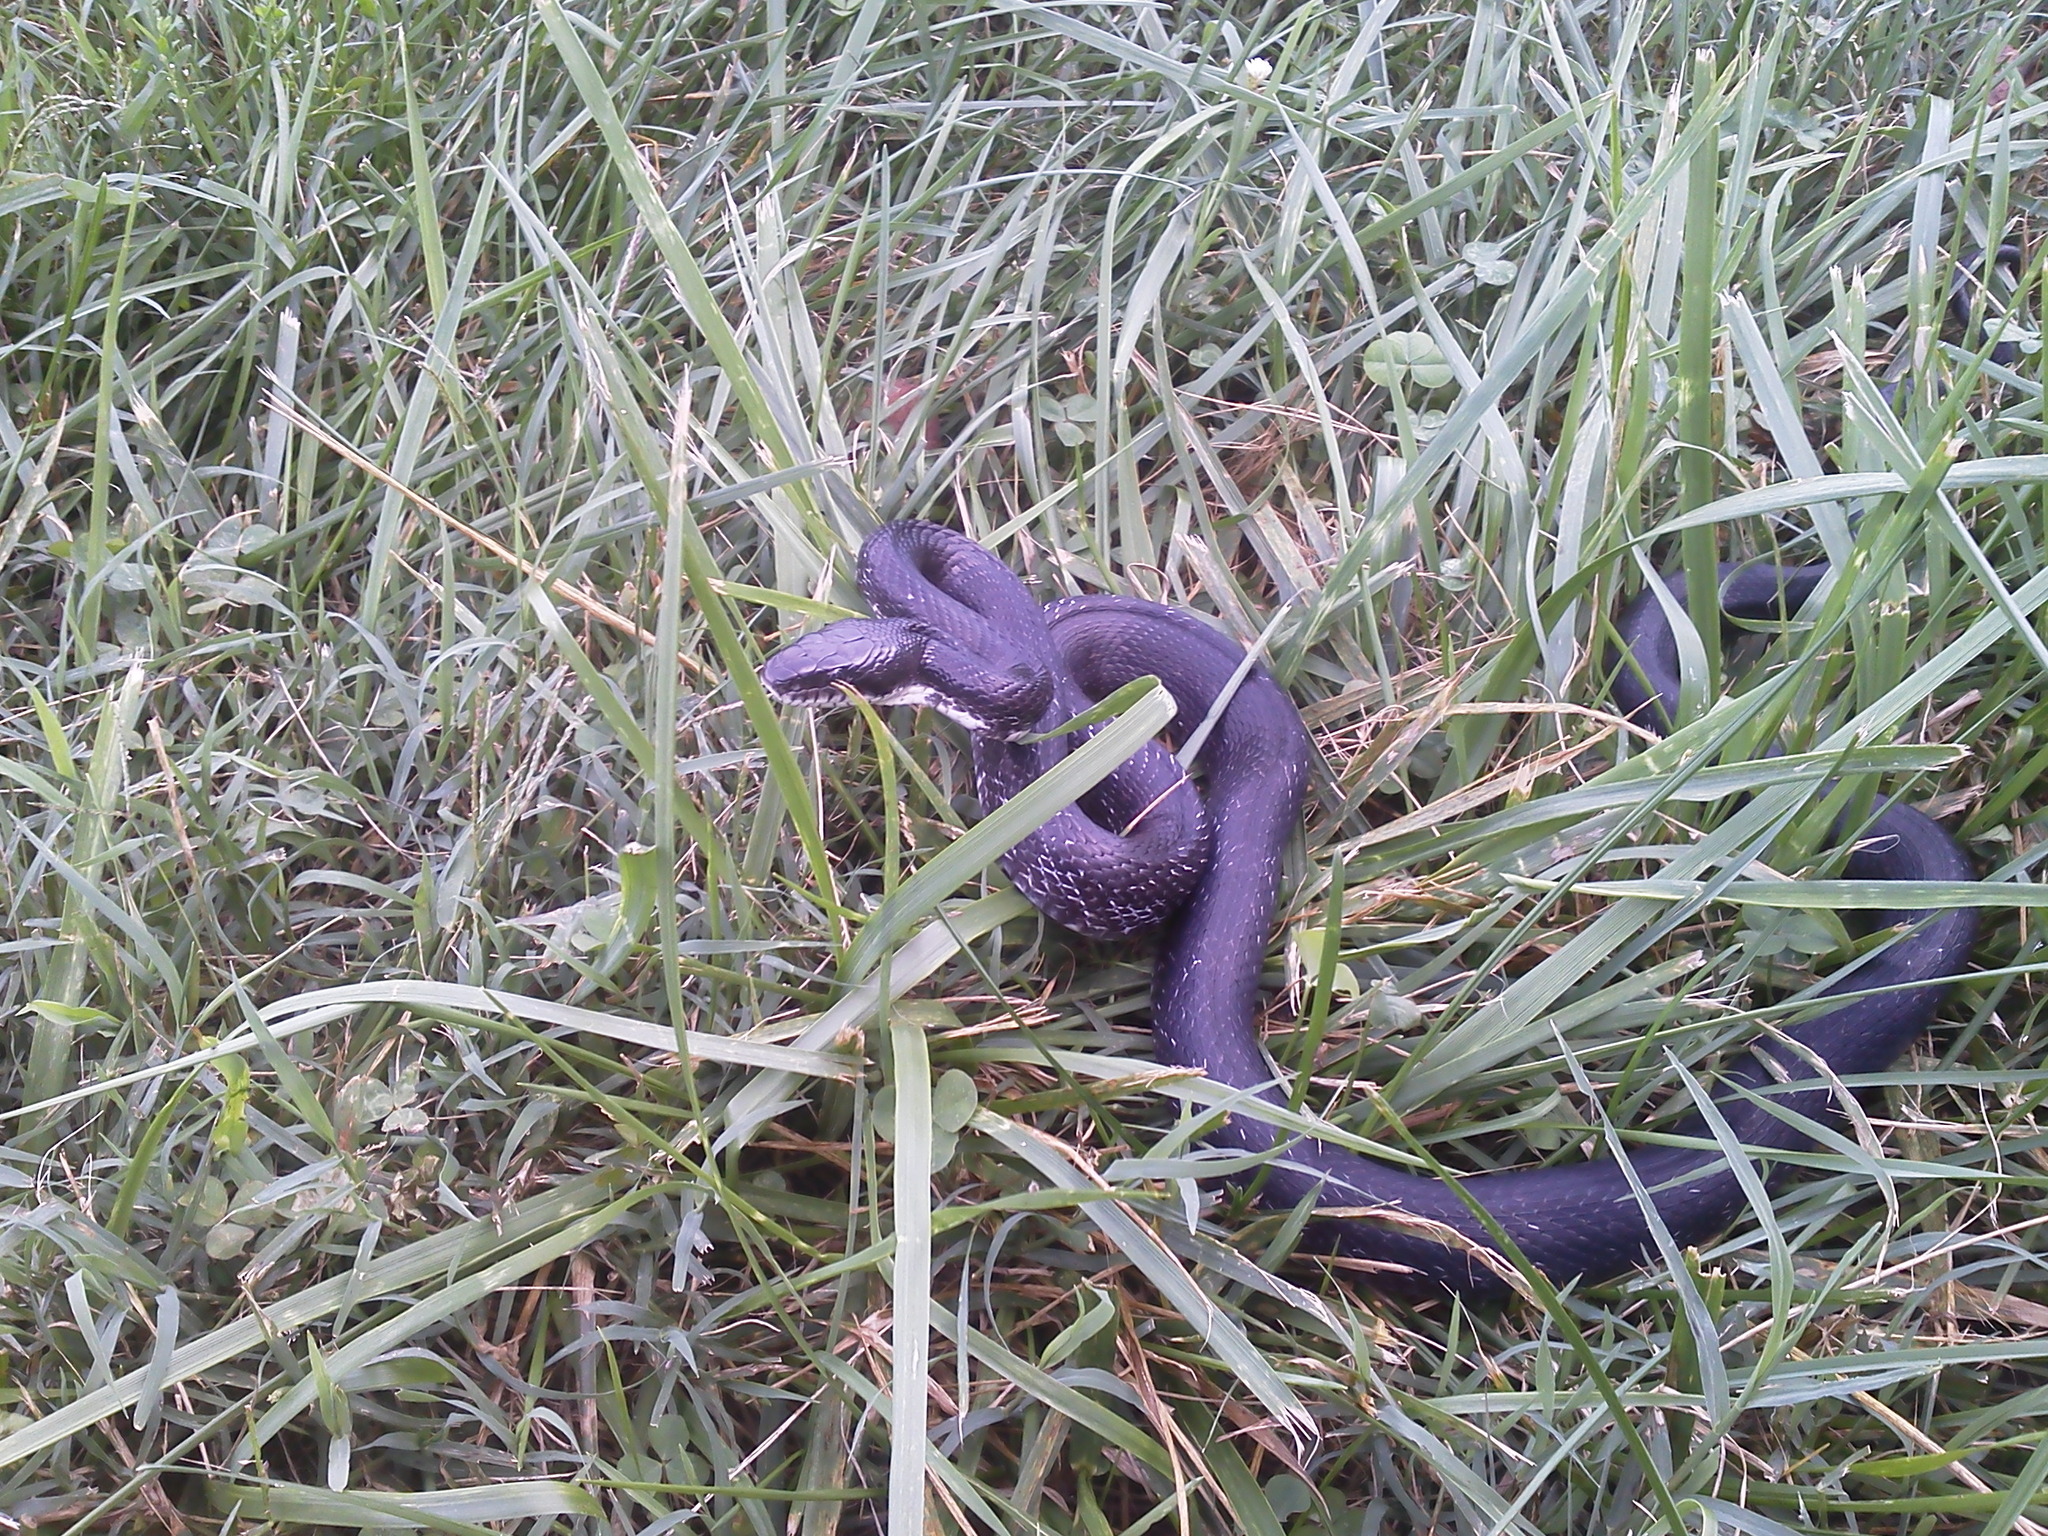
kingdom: Animalia
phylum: Chordata
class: Squamata
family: Colubridae
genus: Pantherophis
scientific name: Pantherophis alleghaniensis
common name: Eastern rat snake
